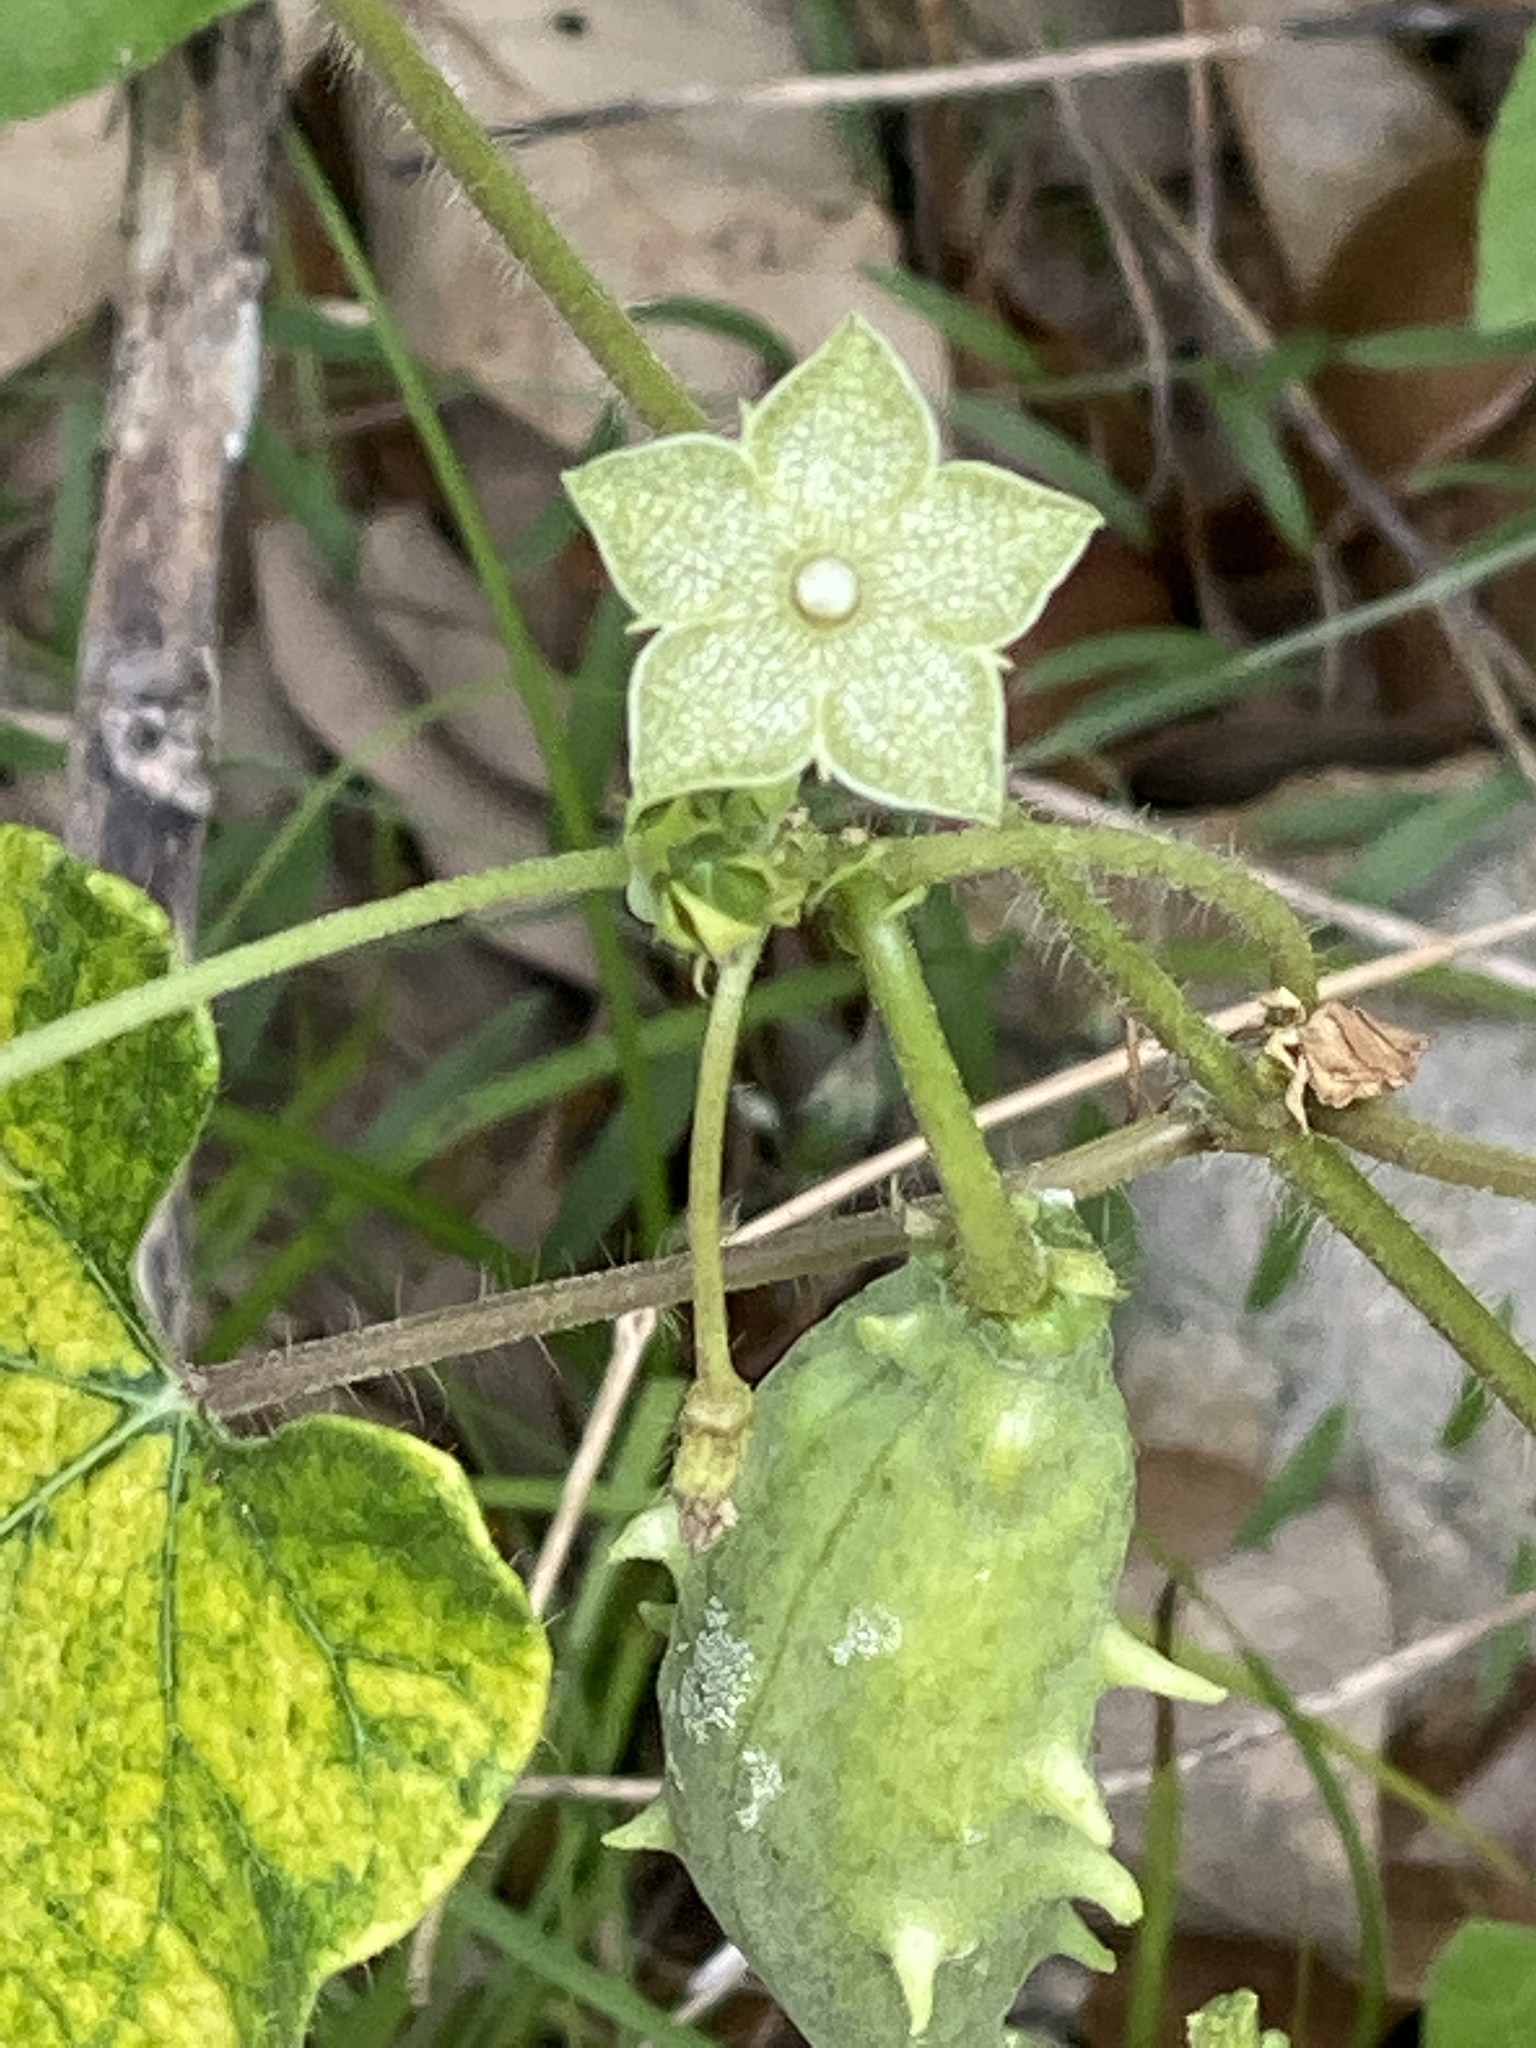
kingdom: Plantae
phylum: Tracheophyta
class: Magnoliopsida
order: Gentianales
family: Apocynaceae
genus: Dictyanthus
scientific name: Dictyanthus reticulatus
